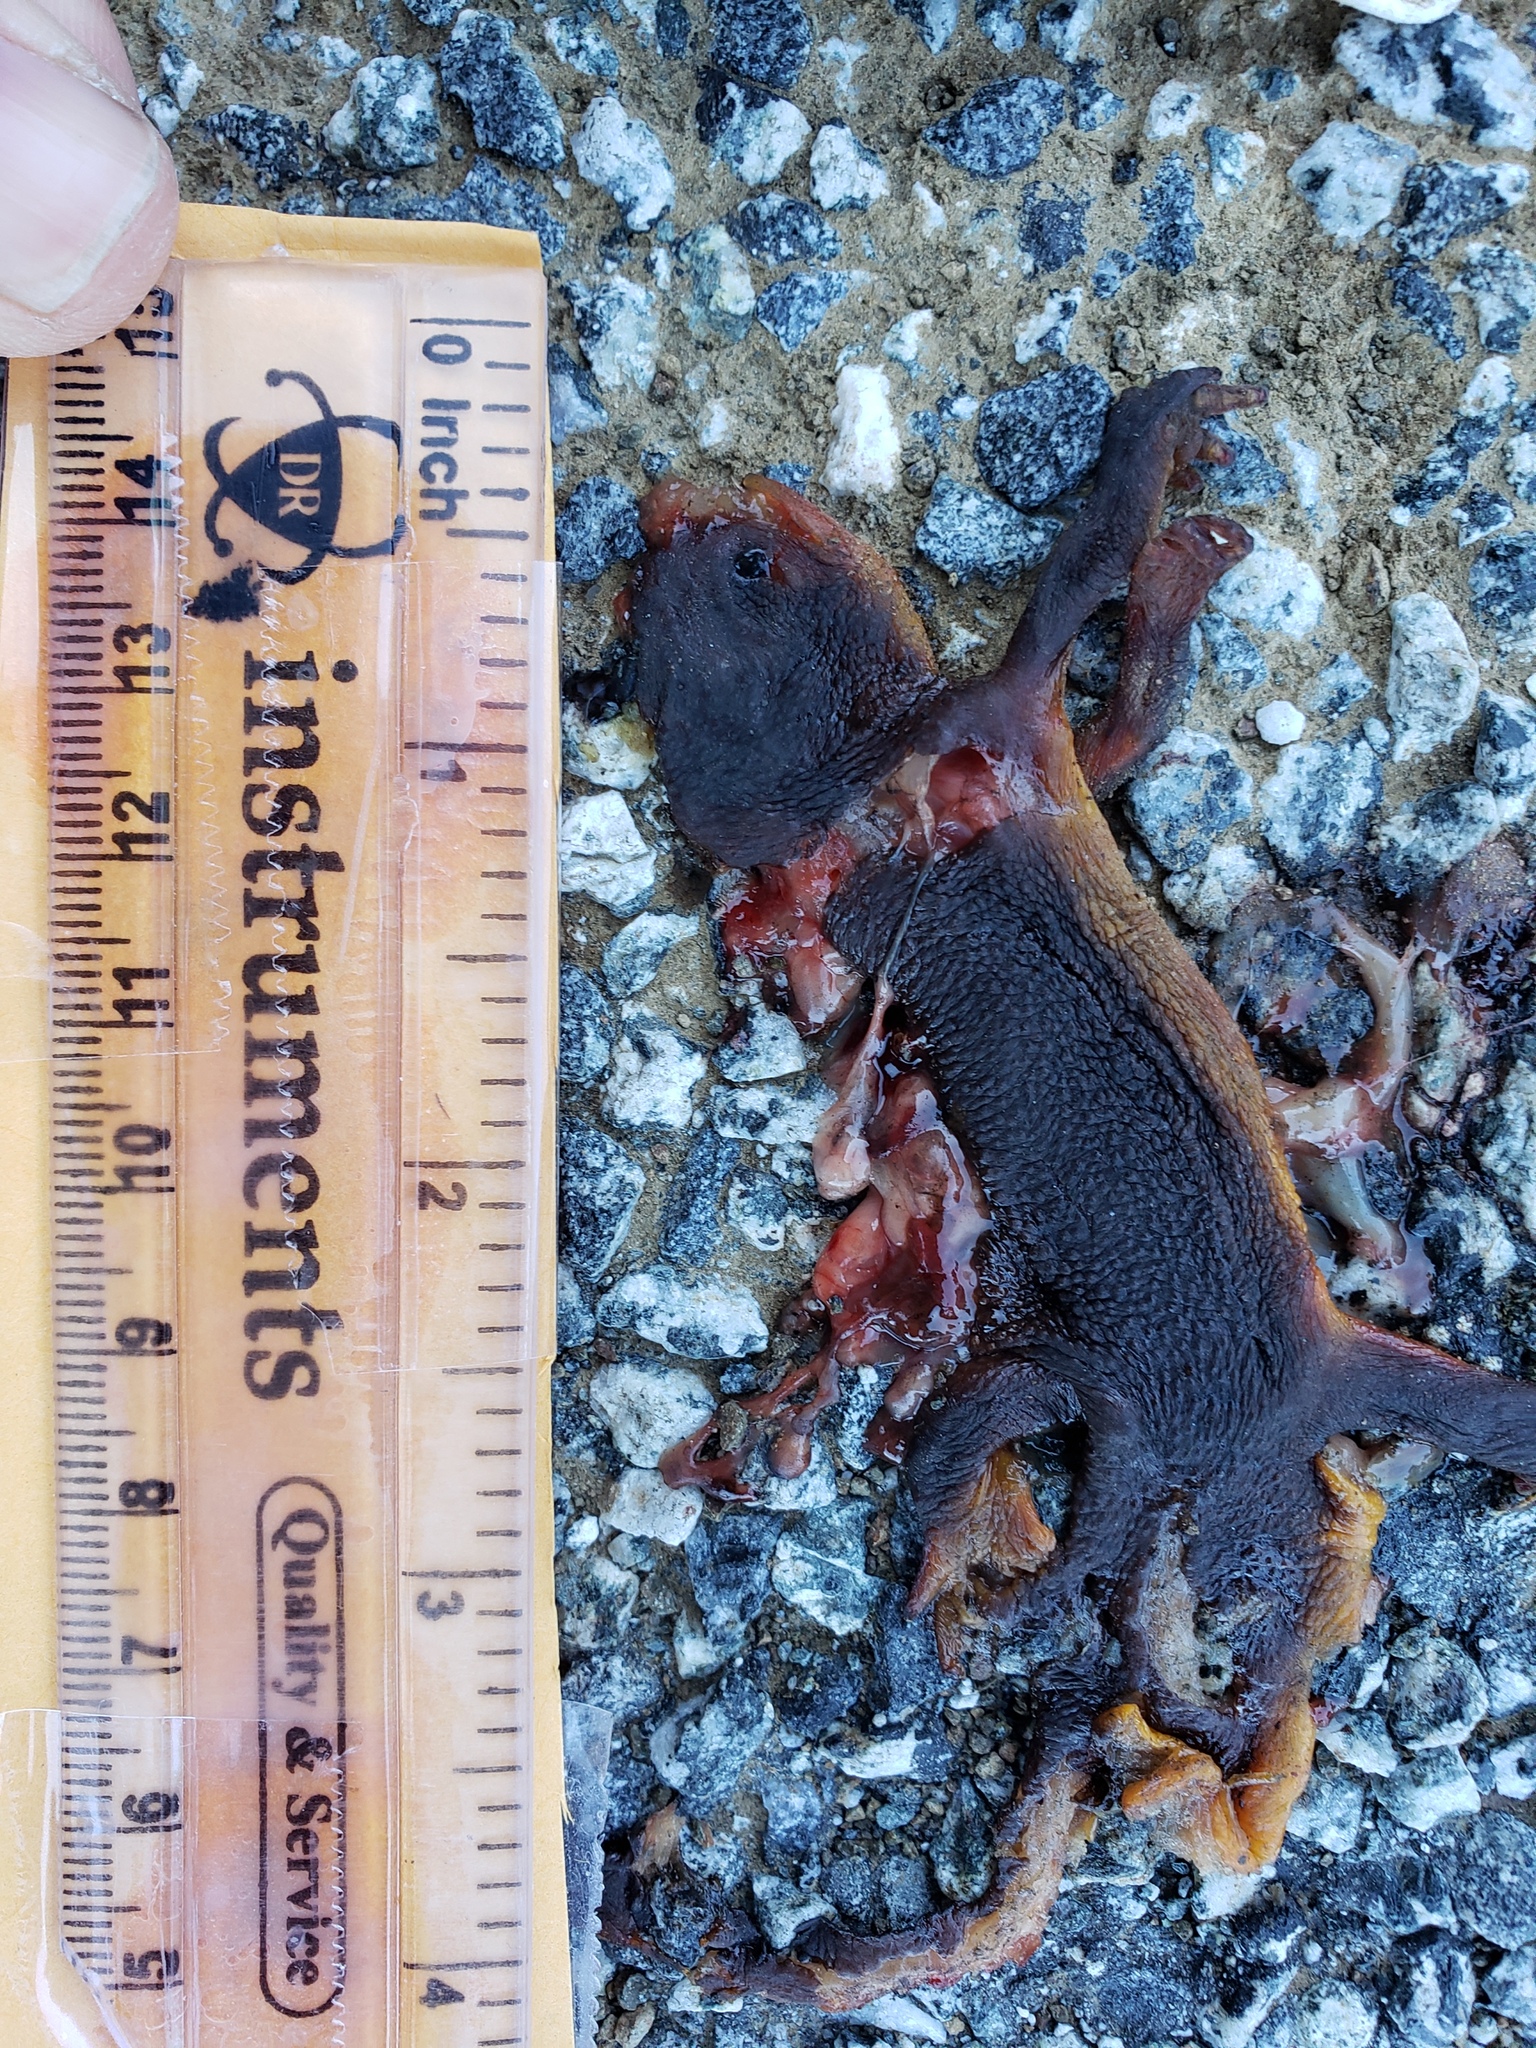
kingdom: Animalia
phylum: Chordata
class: Amphibia
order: Caudata
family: Salamandridae
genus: Taricha
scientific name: Taricha
